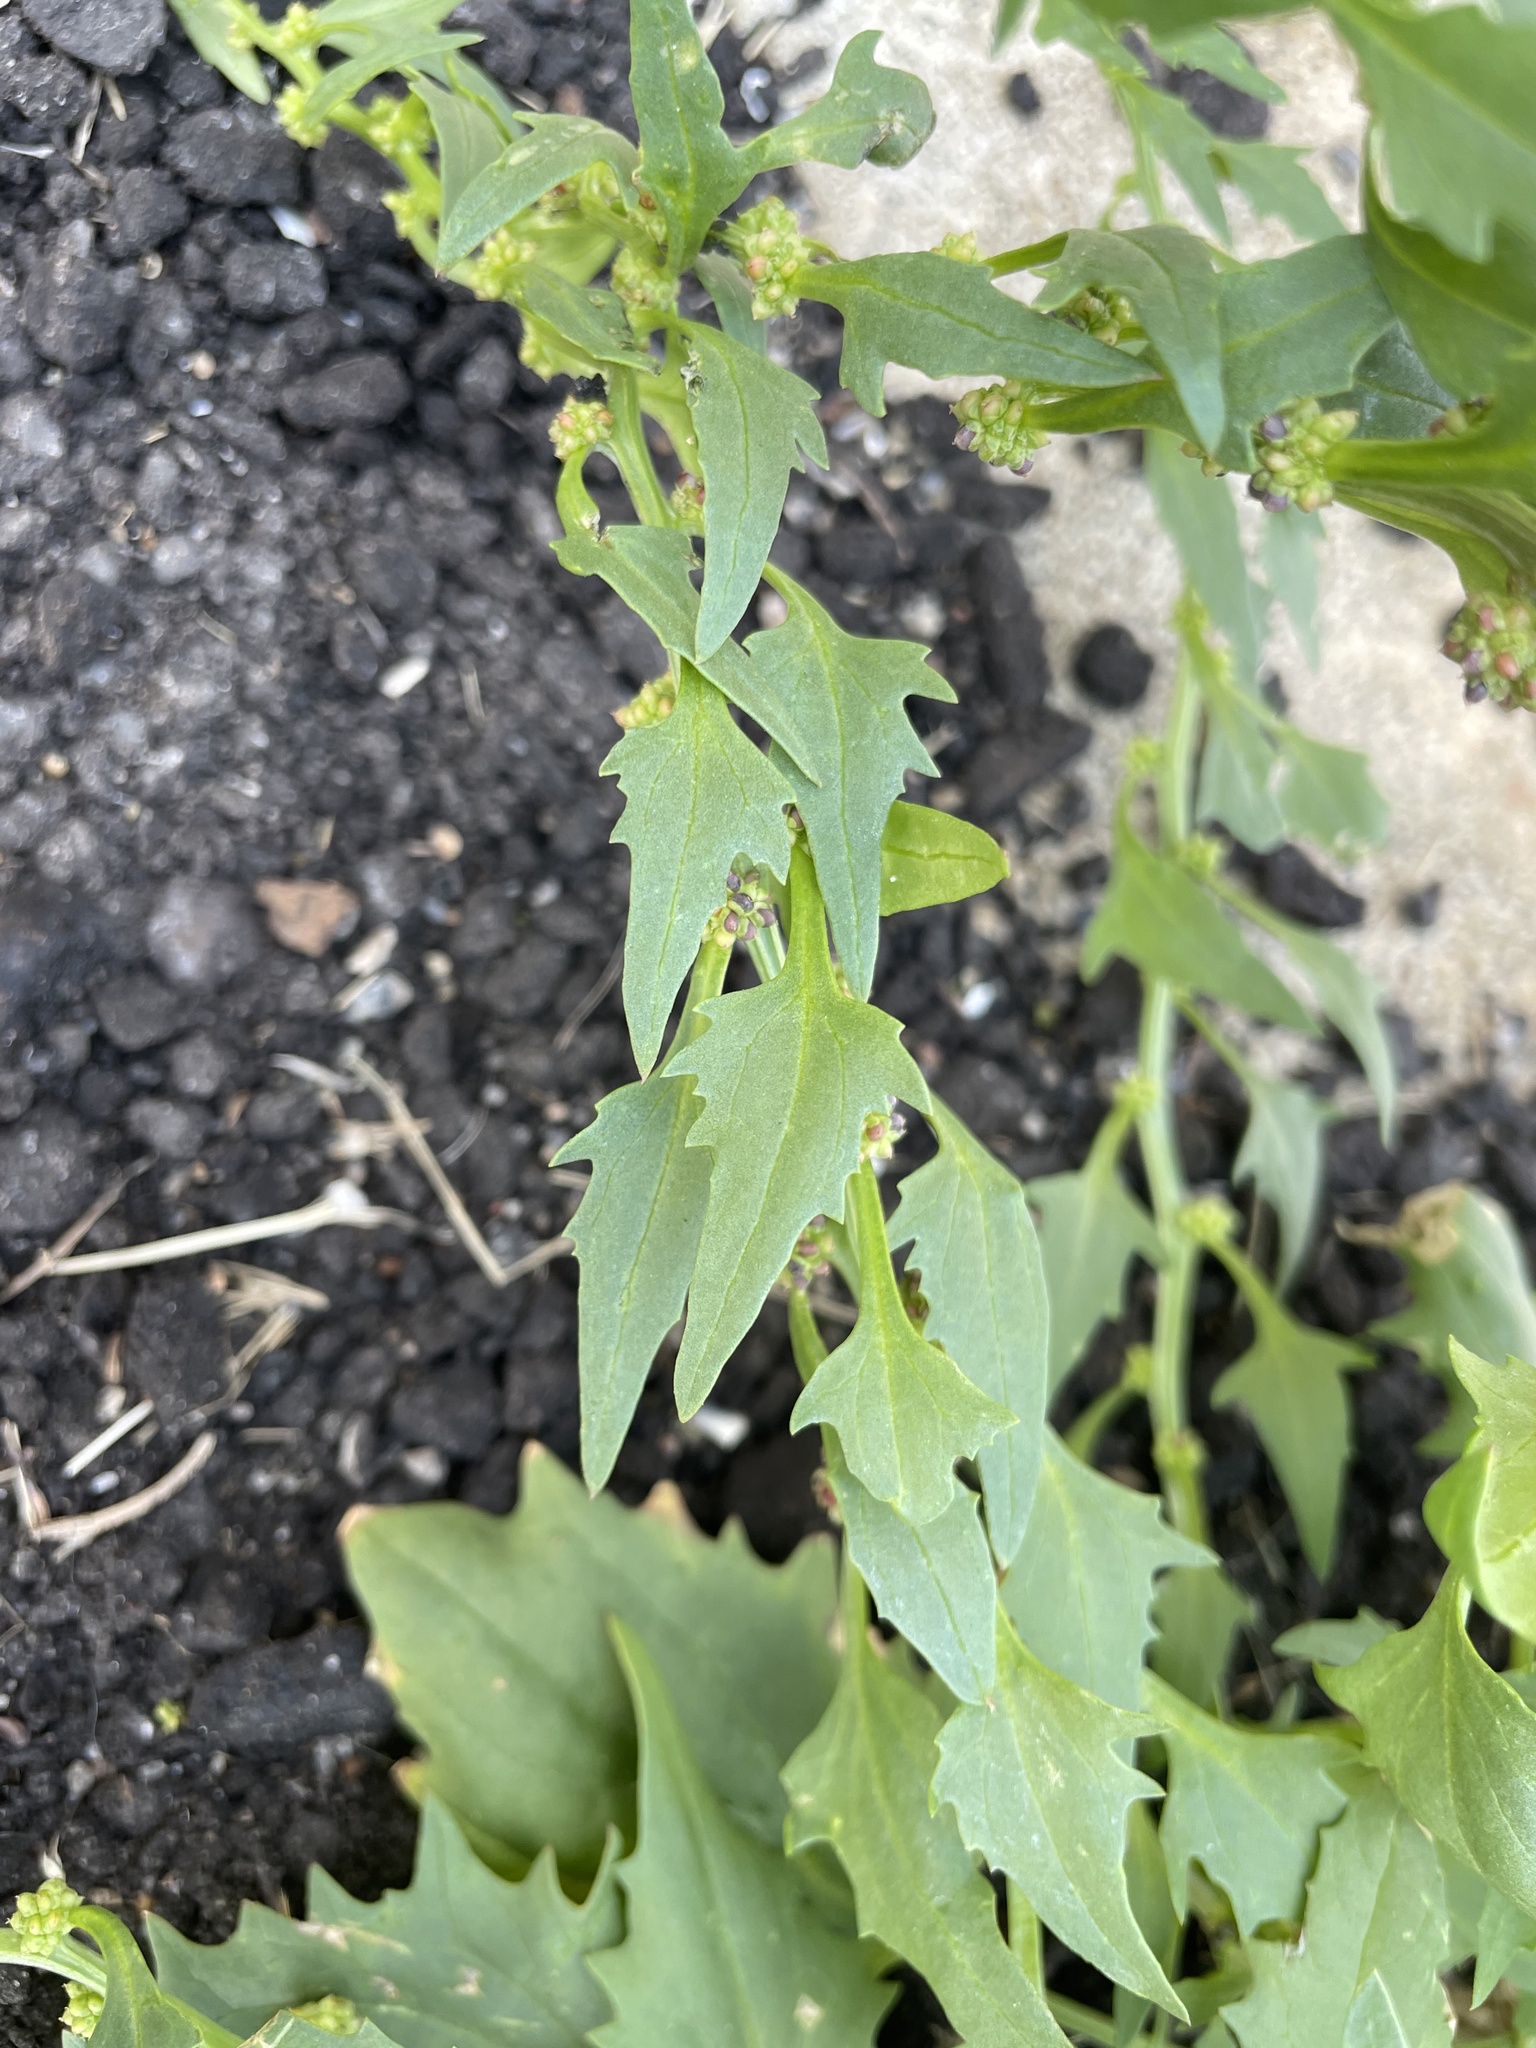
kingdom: Plantae
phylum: Tracheophyta
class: Magnoliopsida
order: Caryophyllales
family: Amaranthaceae
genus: Blitum
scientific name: Blitum virgatum
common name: Strawberry goosefoot
